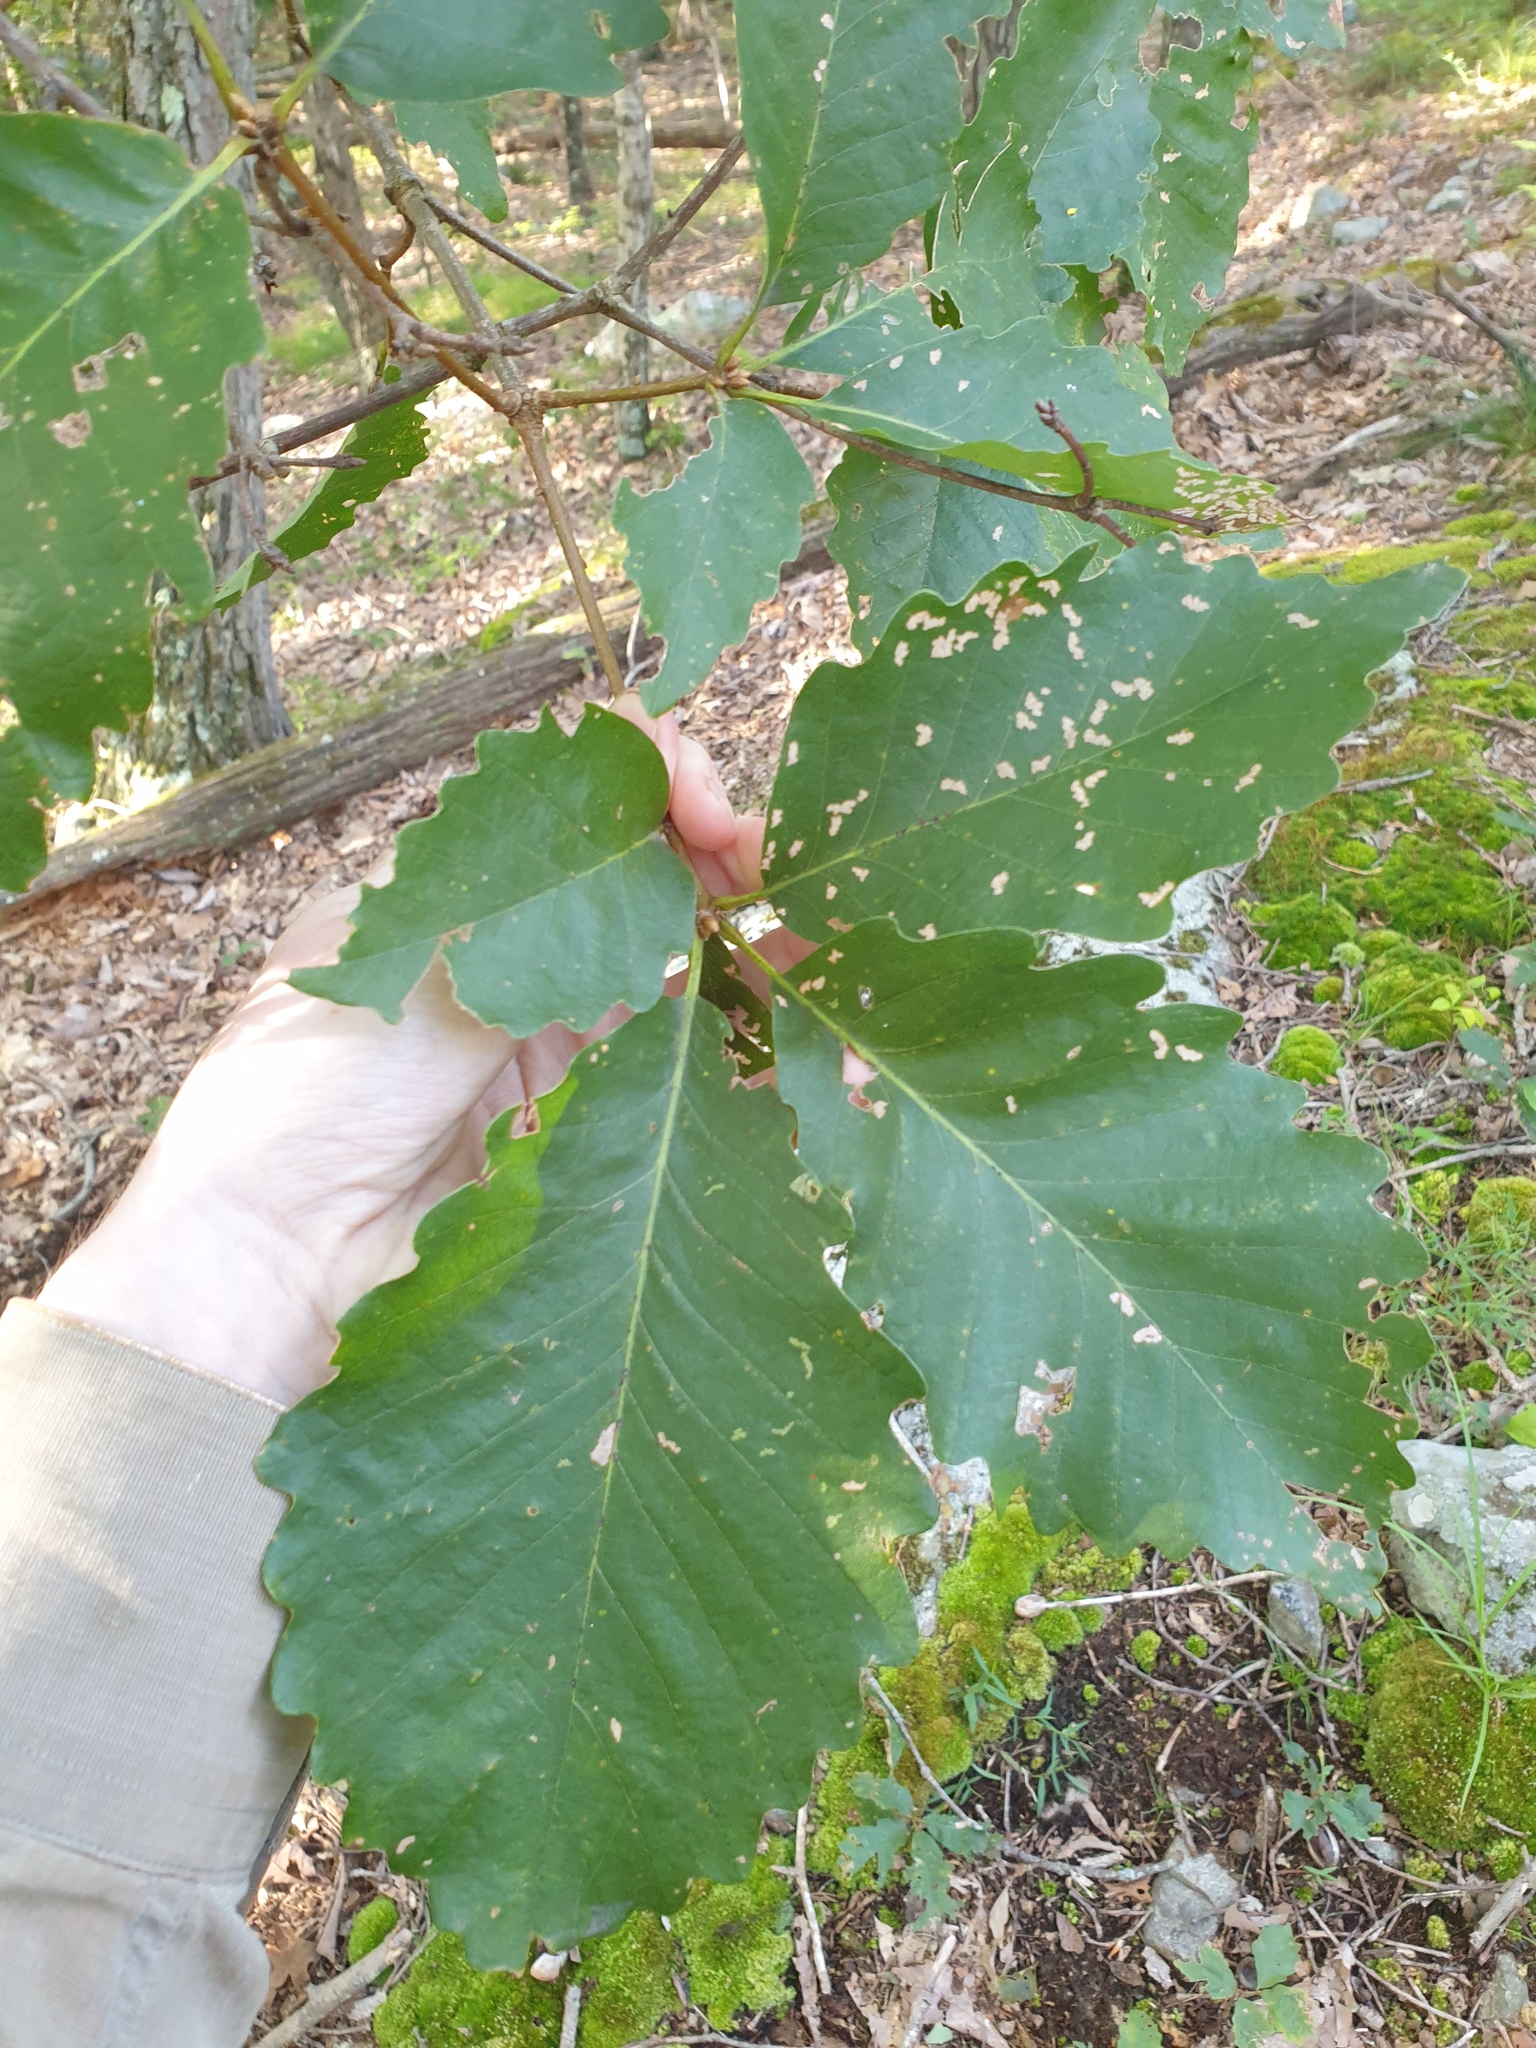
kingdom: Plantae
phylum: Tracheophyta
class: Magnoliopsida
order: Fagales
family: Fagaceae
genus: Quercus
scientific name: Quercus montana
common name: Chestnut oak
